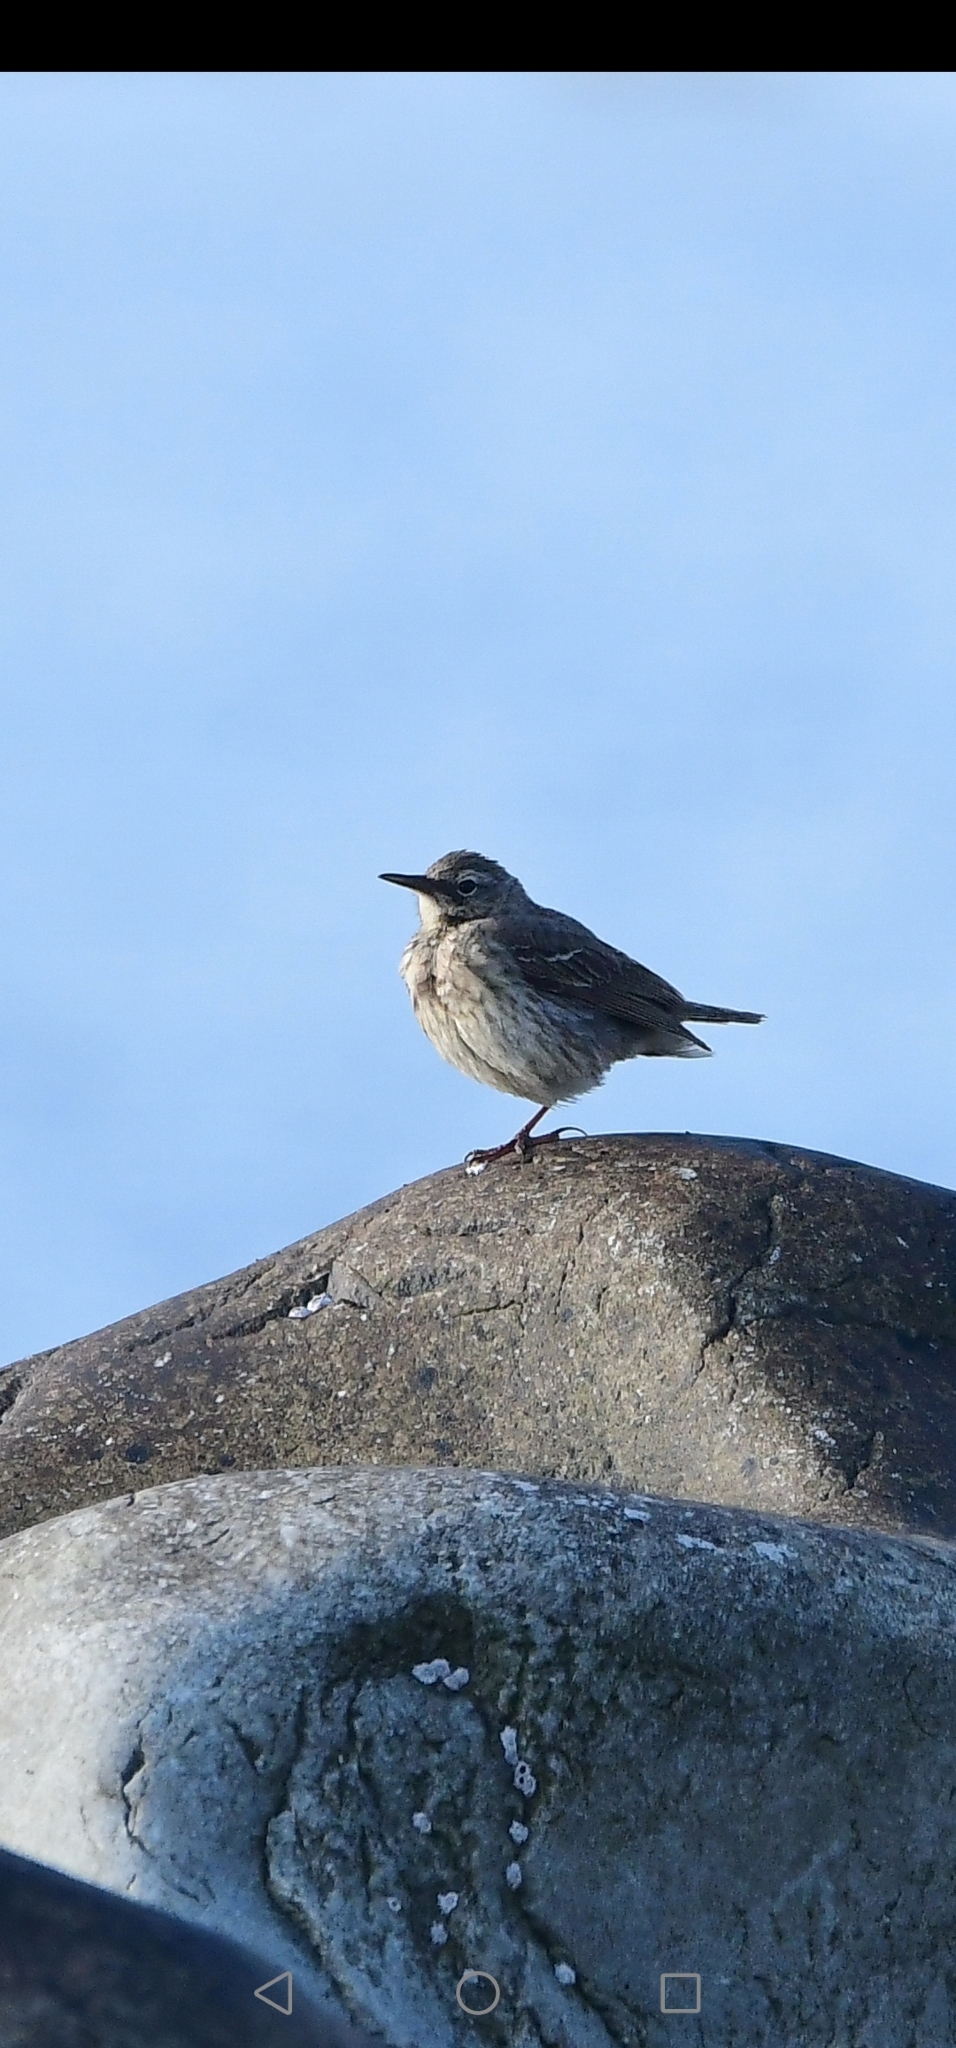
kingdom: Animalia
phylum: Chordata
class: Aves
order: Passeriformes
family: Motacillidae
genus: Anthus
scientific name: Anthus petrosus
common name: Eurasian rock pipit
